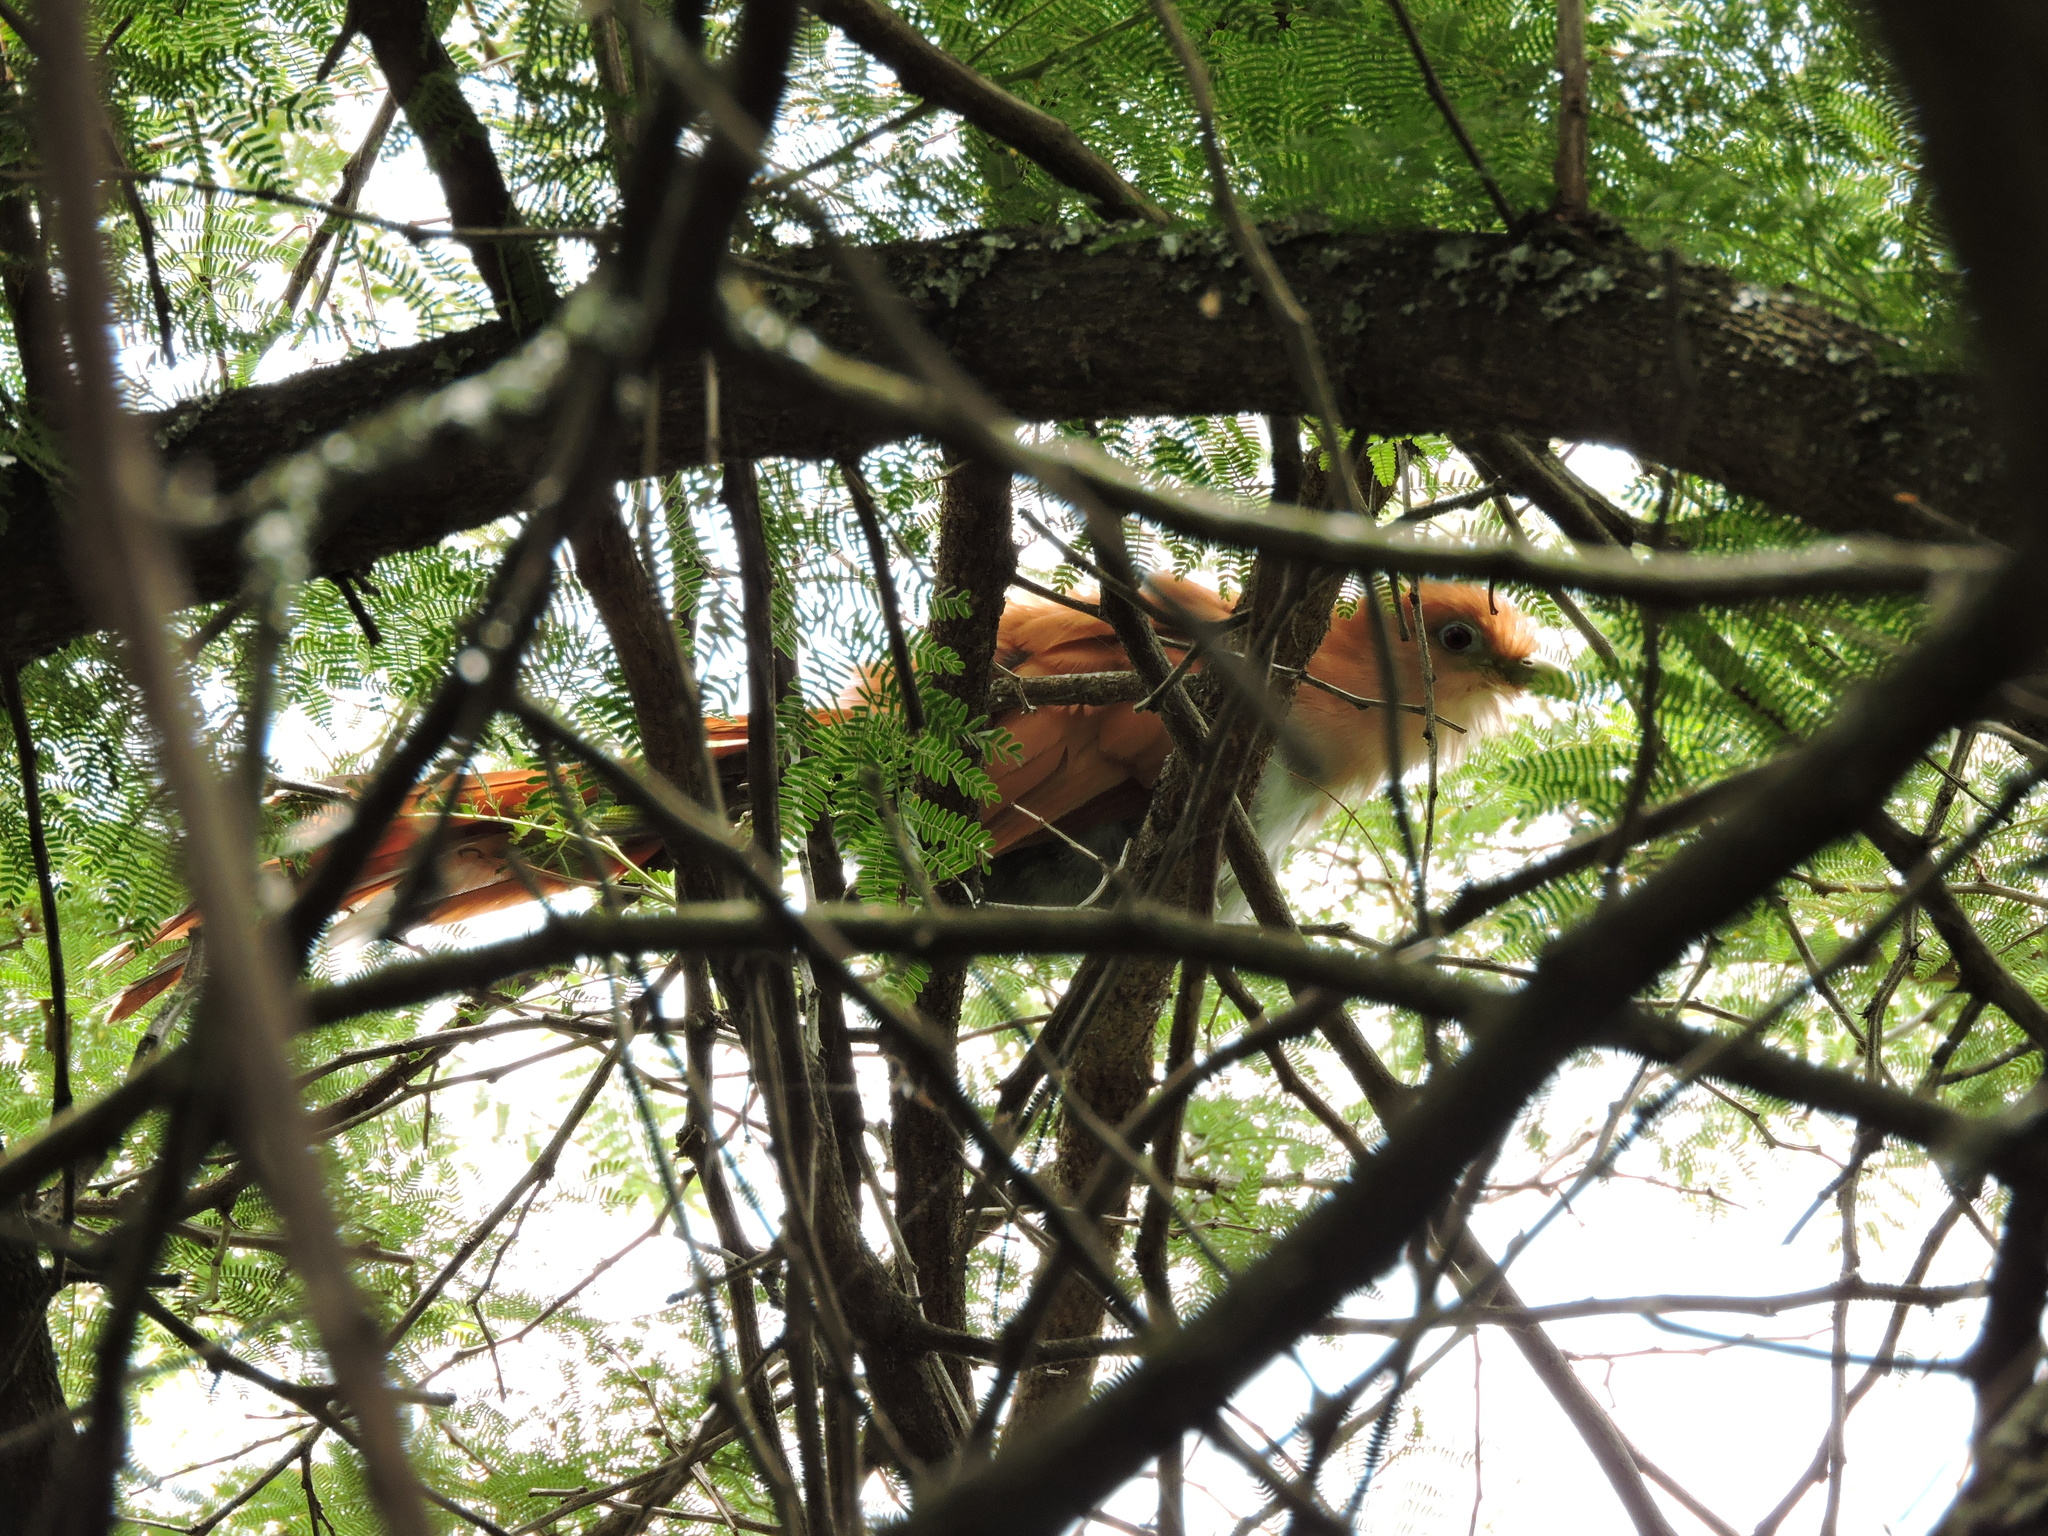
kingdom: Animalia
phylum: Chordata
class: Aves
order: Cuculiformes
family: Cuculidae
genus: Piaya
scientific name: Piaya cayana
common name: Squirrel cuckoo
